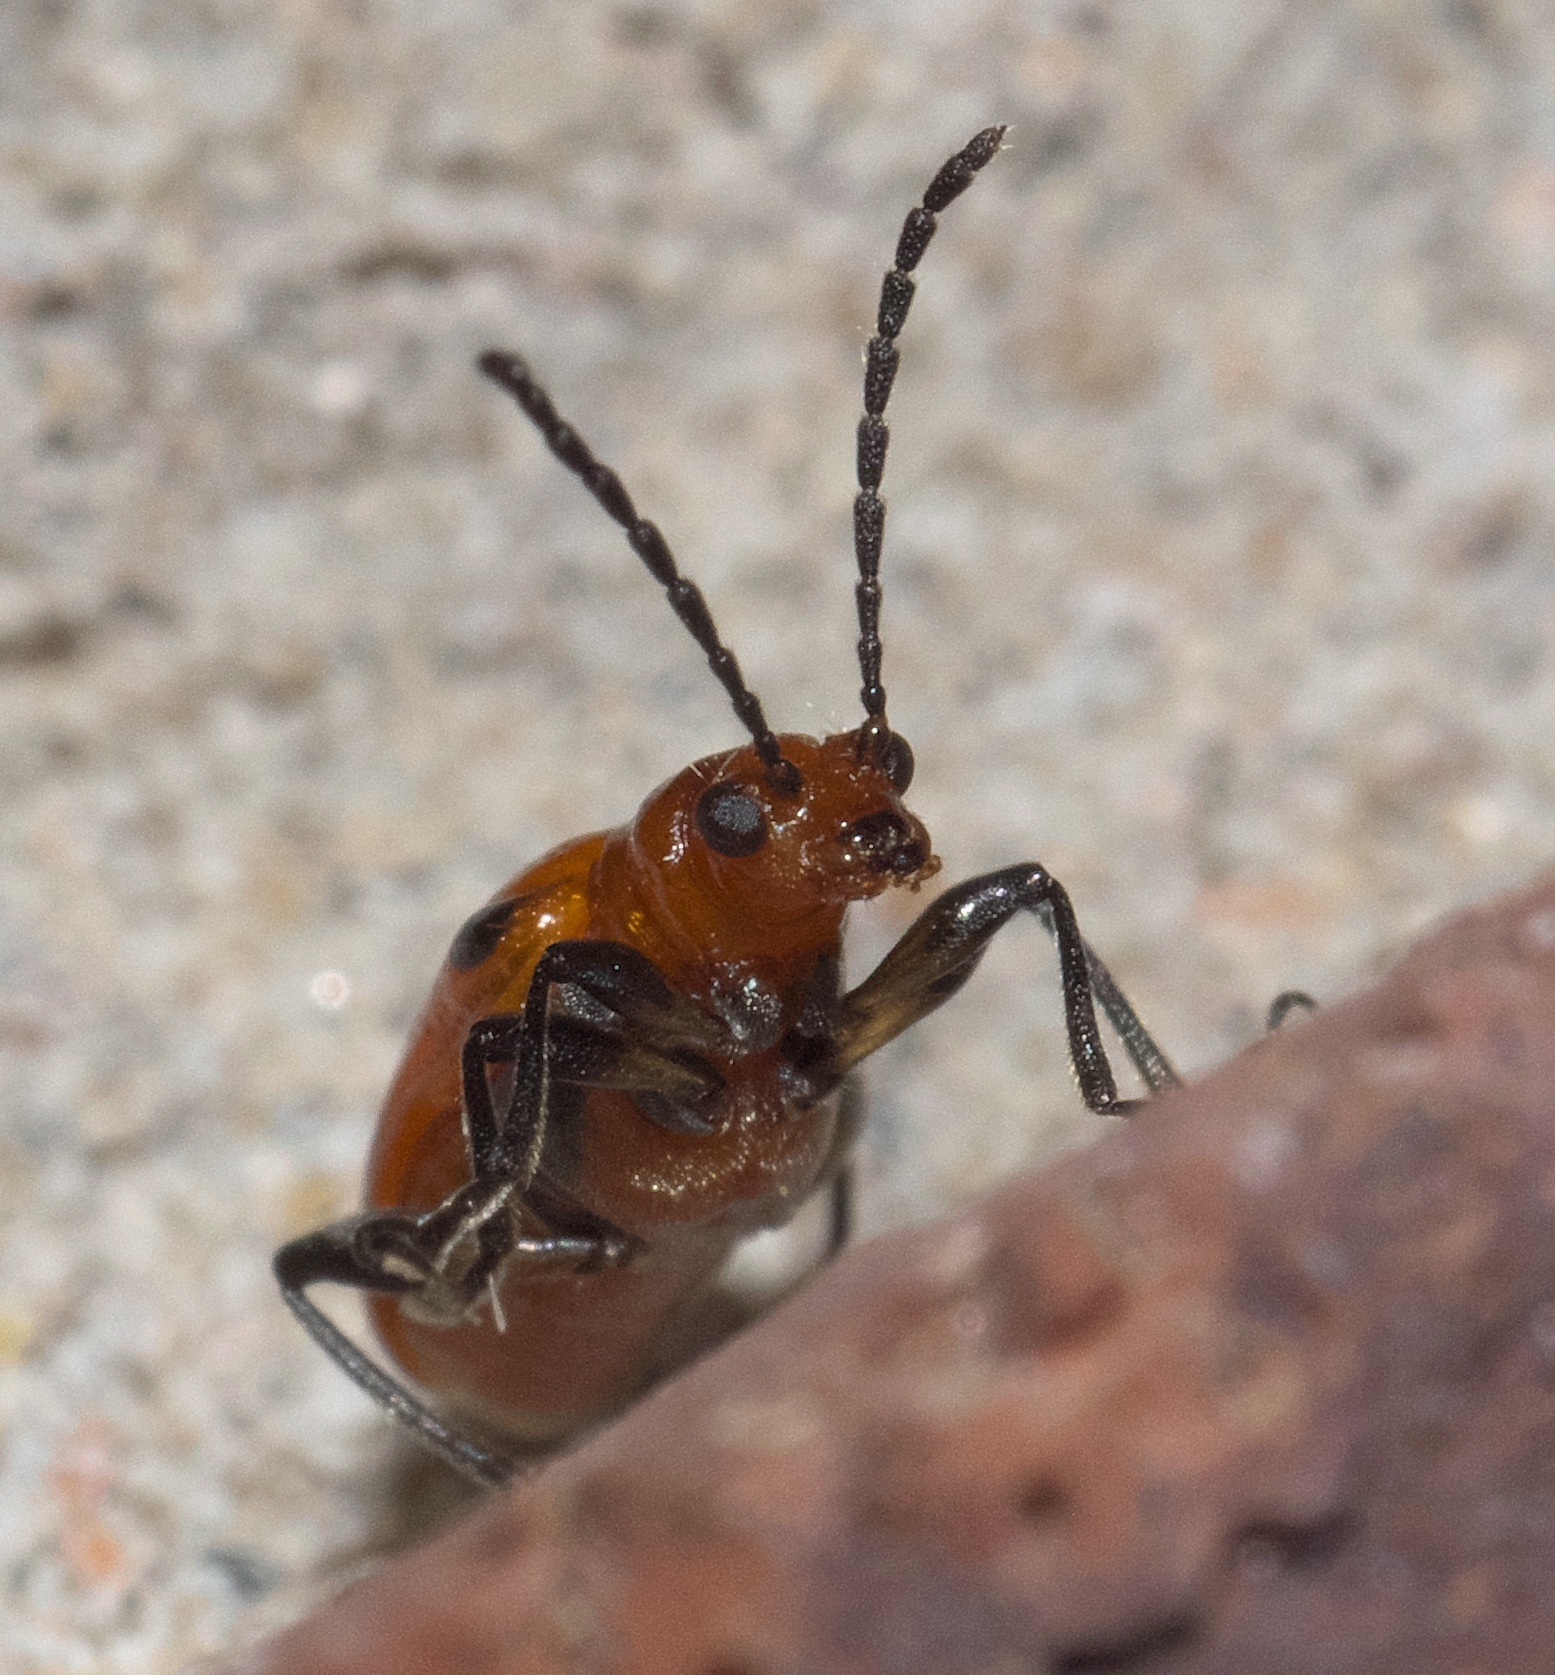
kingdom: Animalia
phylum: Arthropoda
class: Insecta
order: Coleoptera
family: Chrysomelidae
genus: Neolema
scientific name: Neolema sexpunctata
